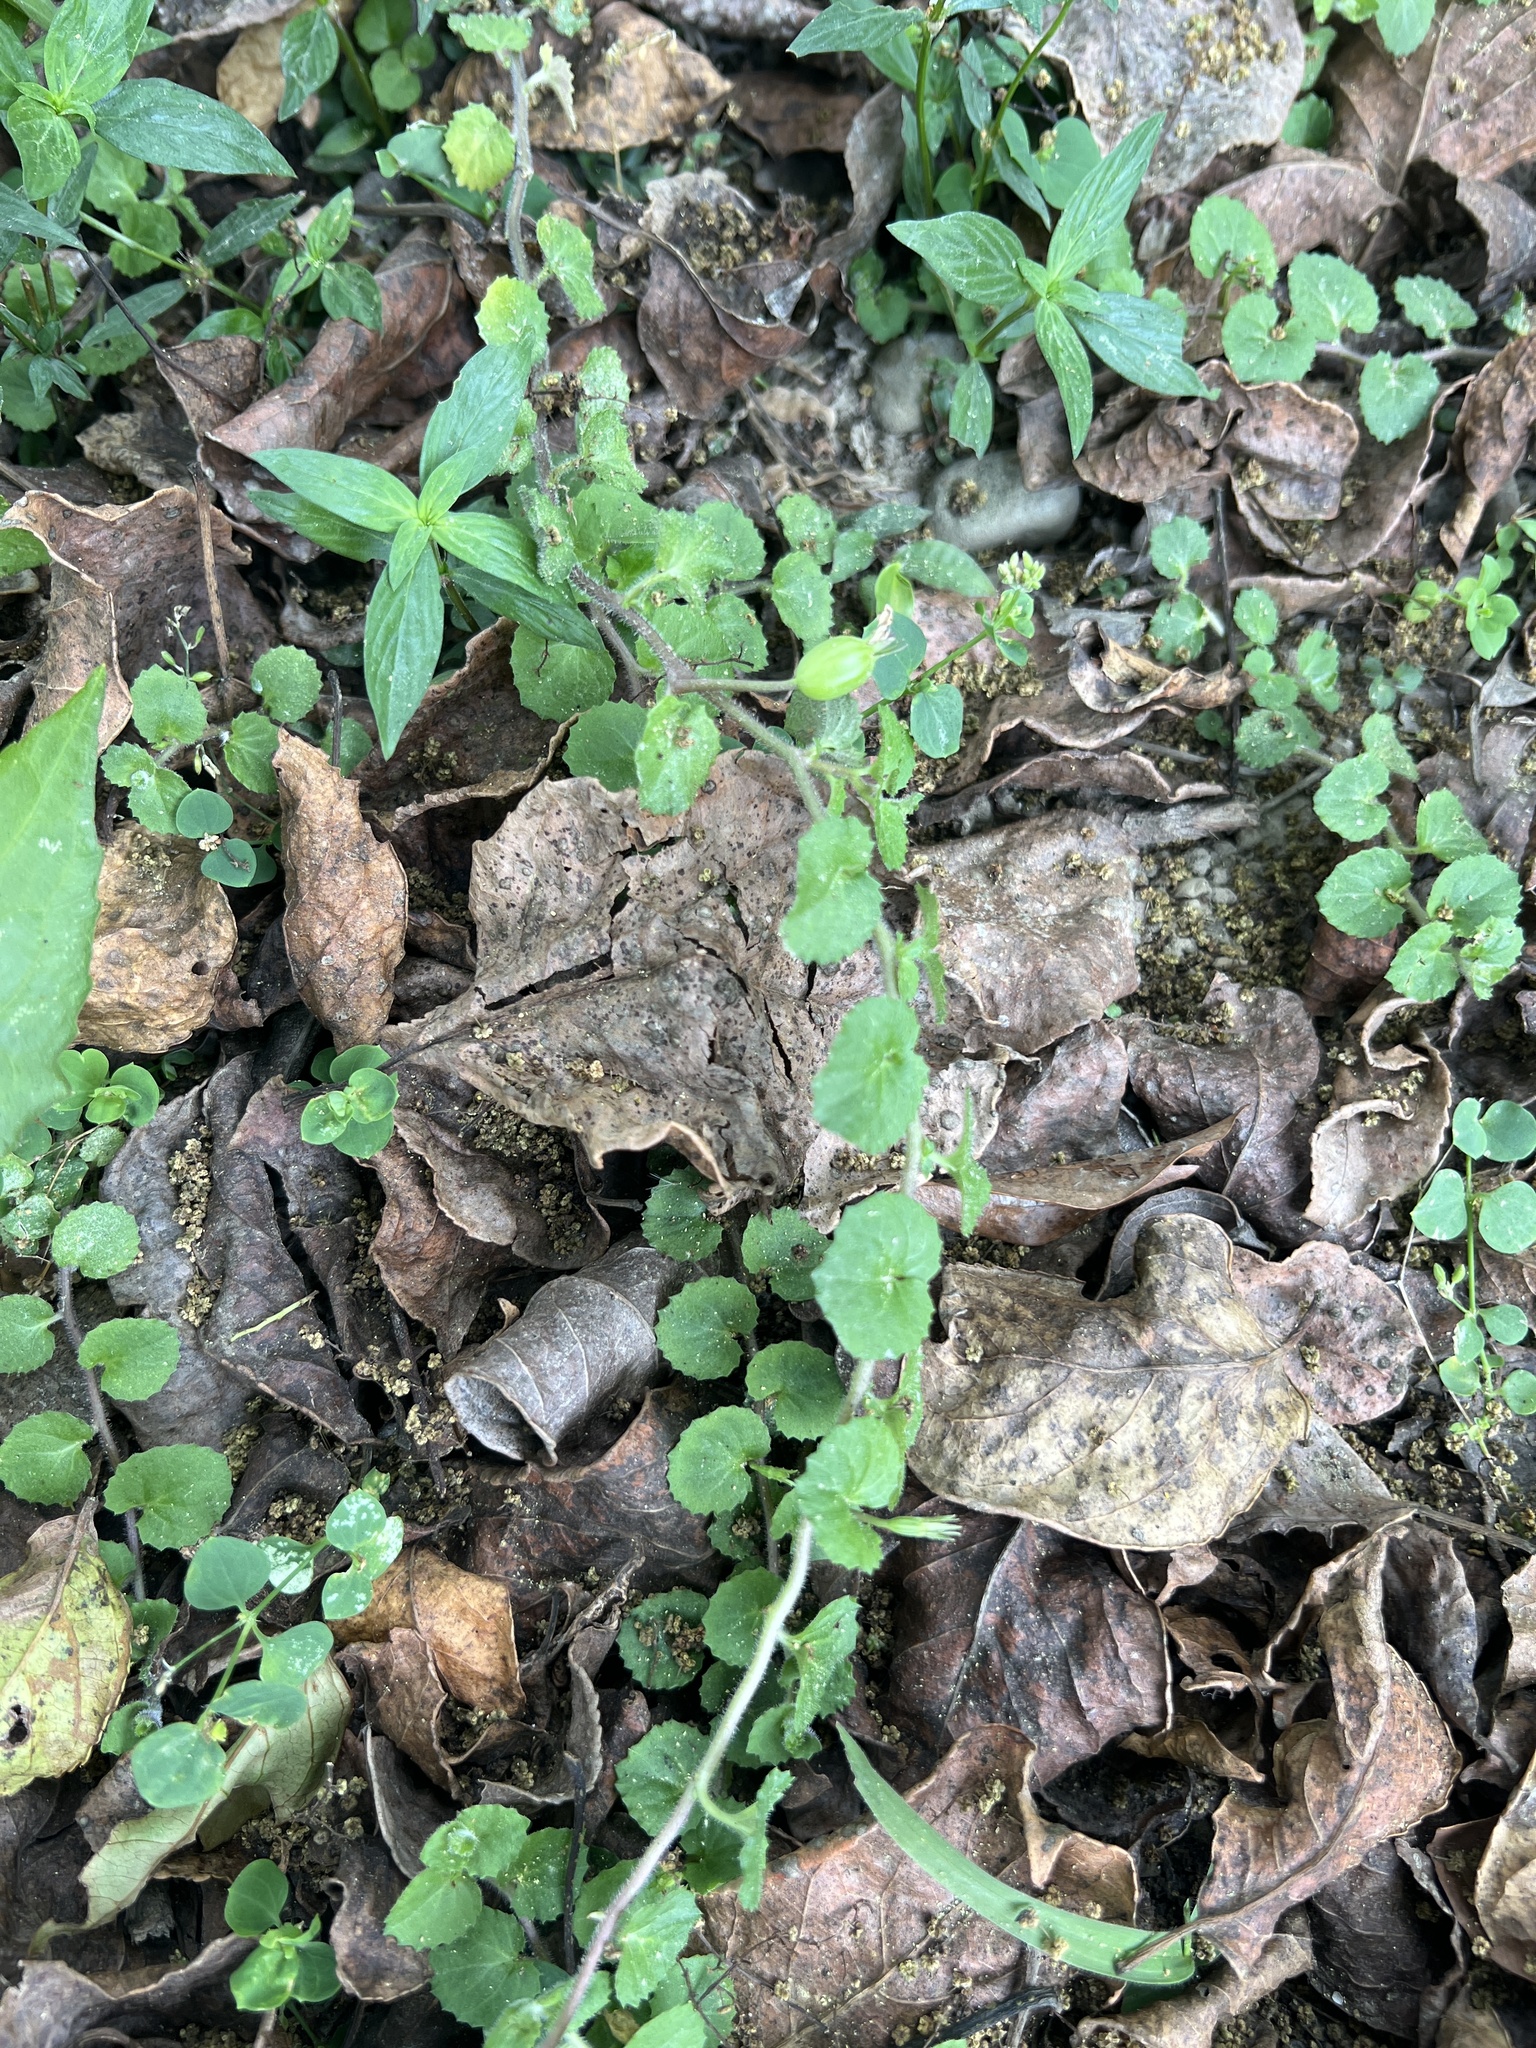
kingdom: Plantae
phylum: Tracheophyta
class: Magnoliopsida
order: Asterales
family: Campanulaceae
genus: Lobelia
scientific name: Lobelia nummularia
